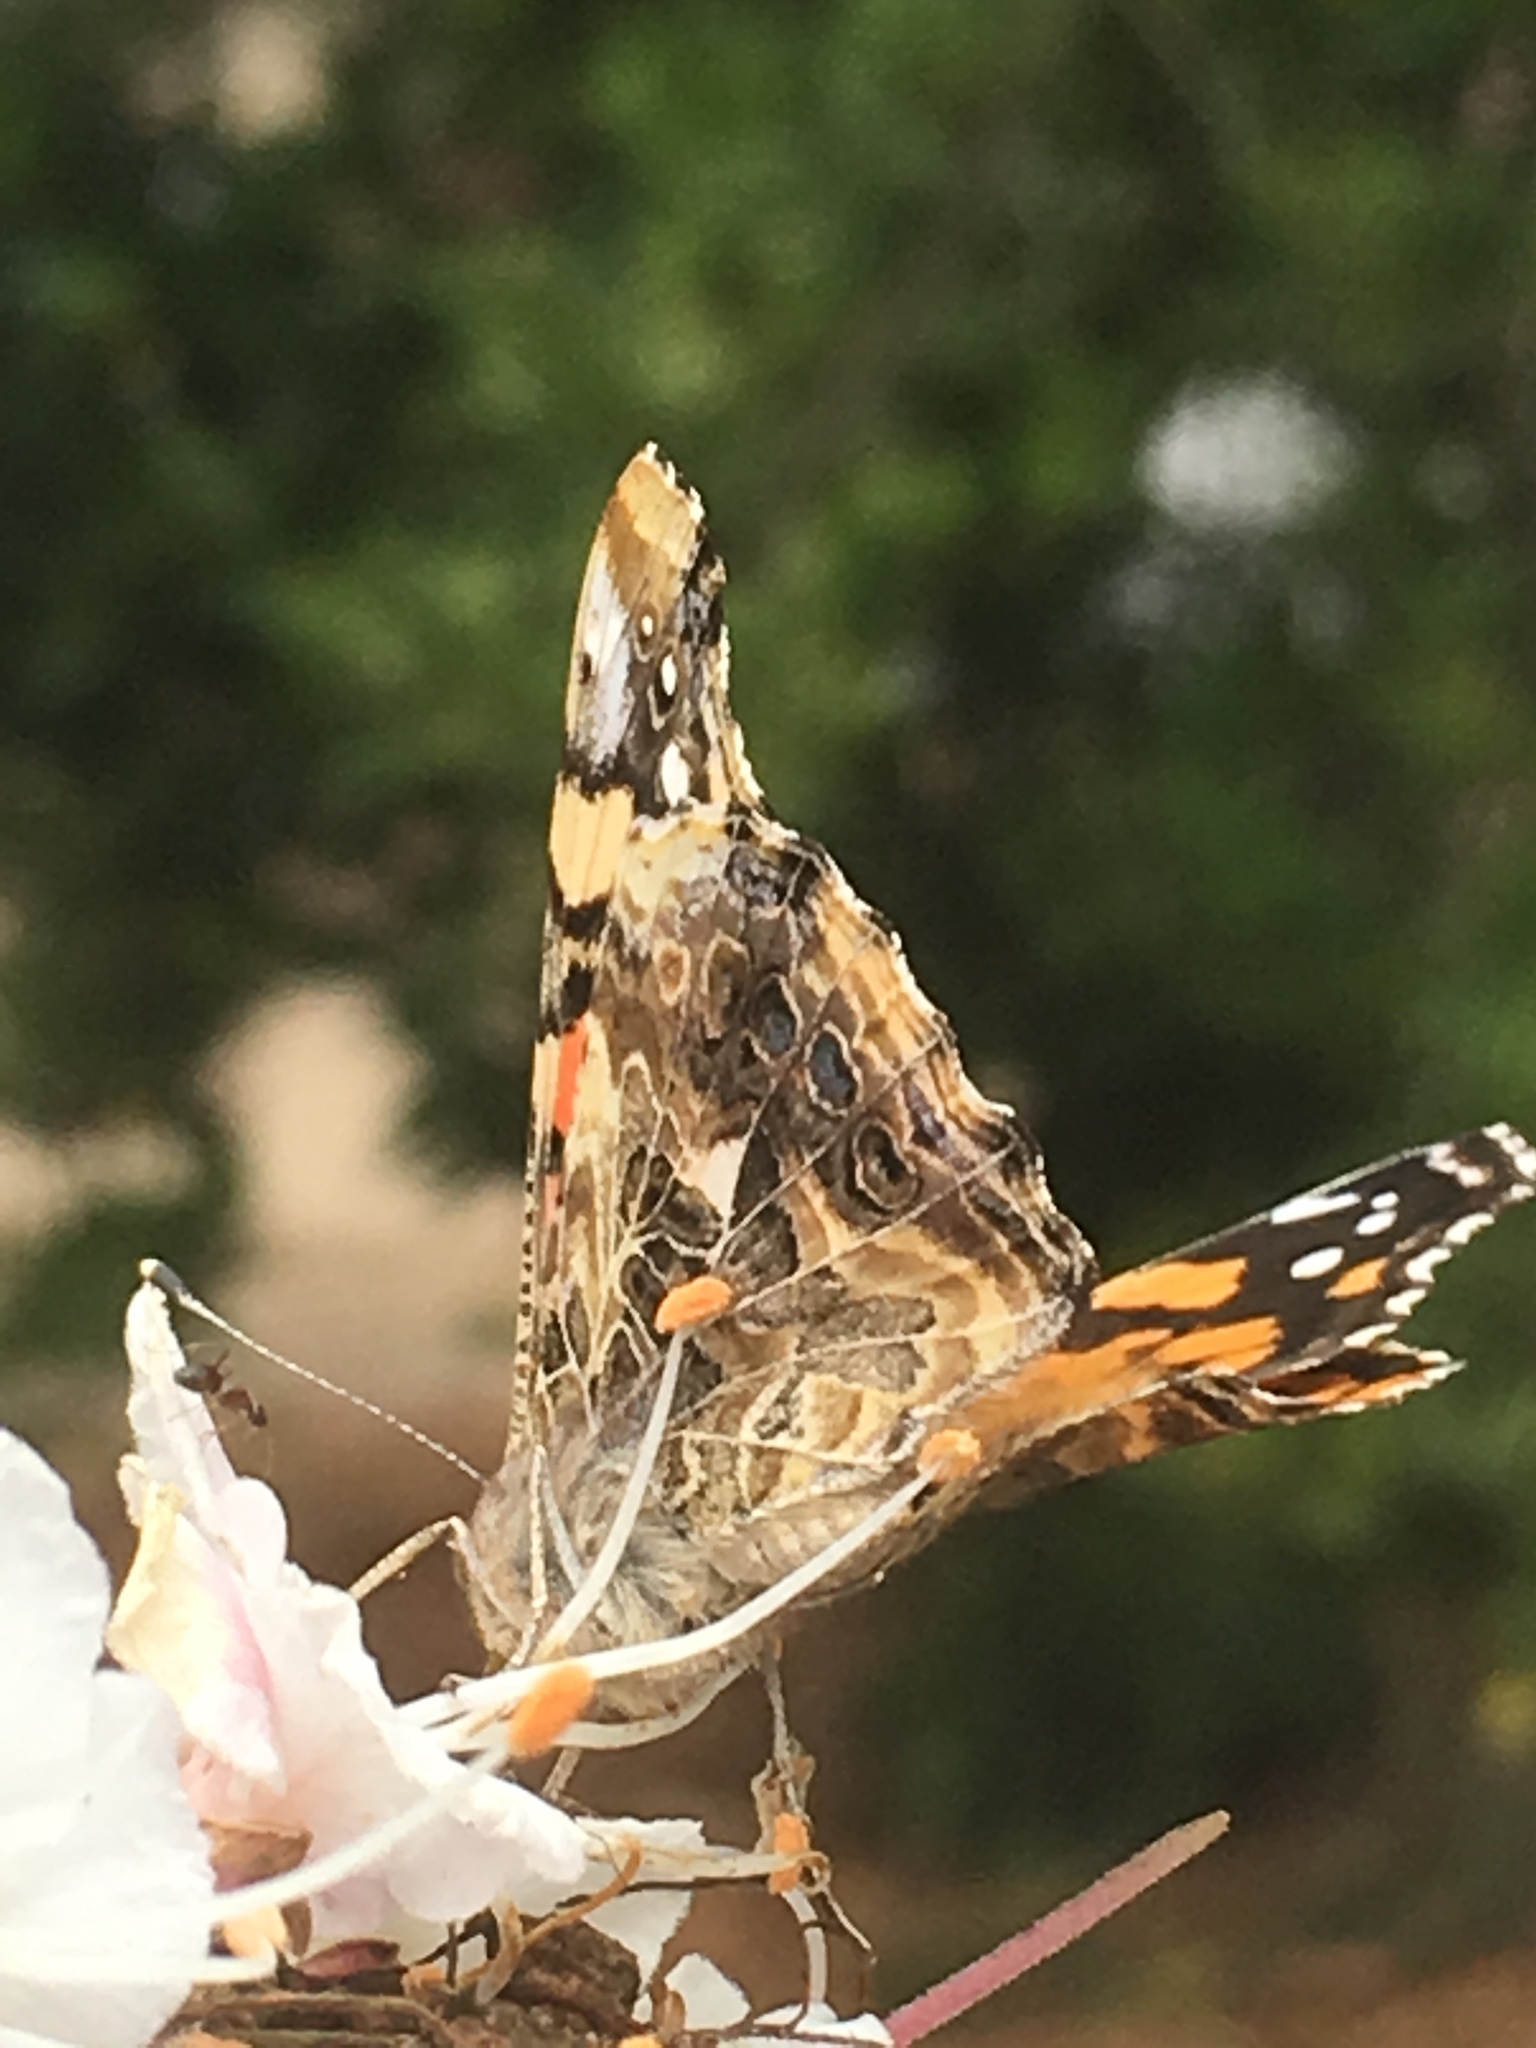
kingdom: Animalia
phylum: Arthropoda
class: Insecta
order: Lepidoptera
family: Nymphalidae
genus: Vanessa
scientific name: Vanessa annabella
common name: West coast lady
